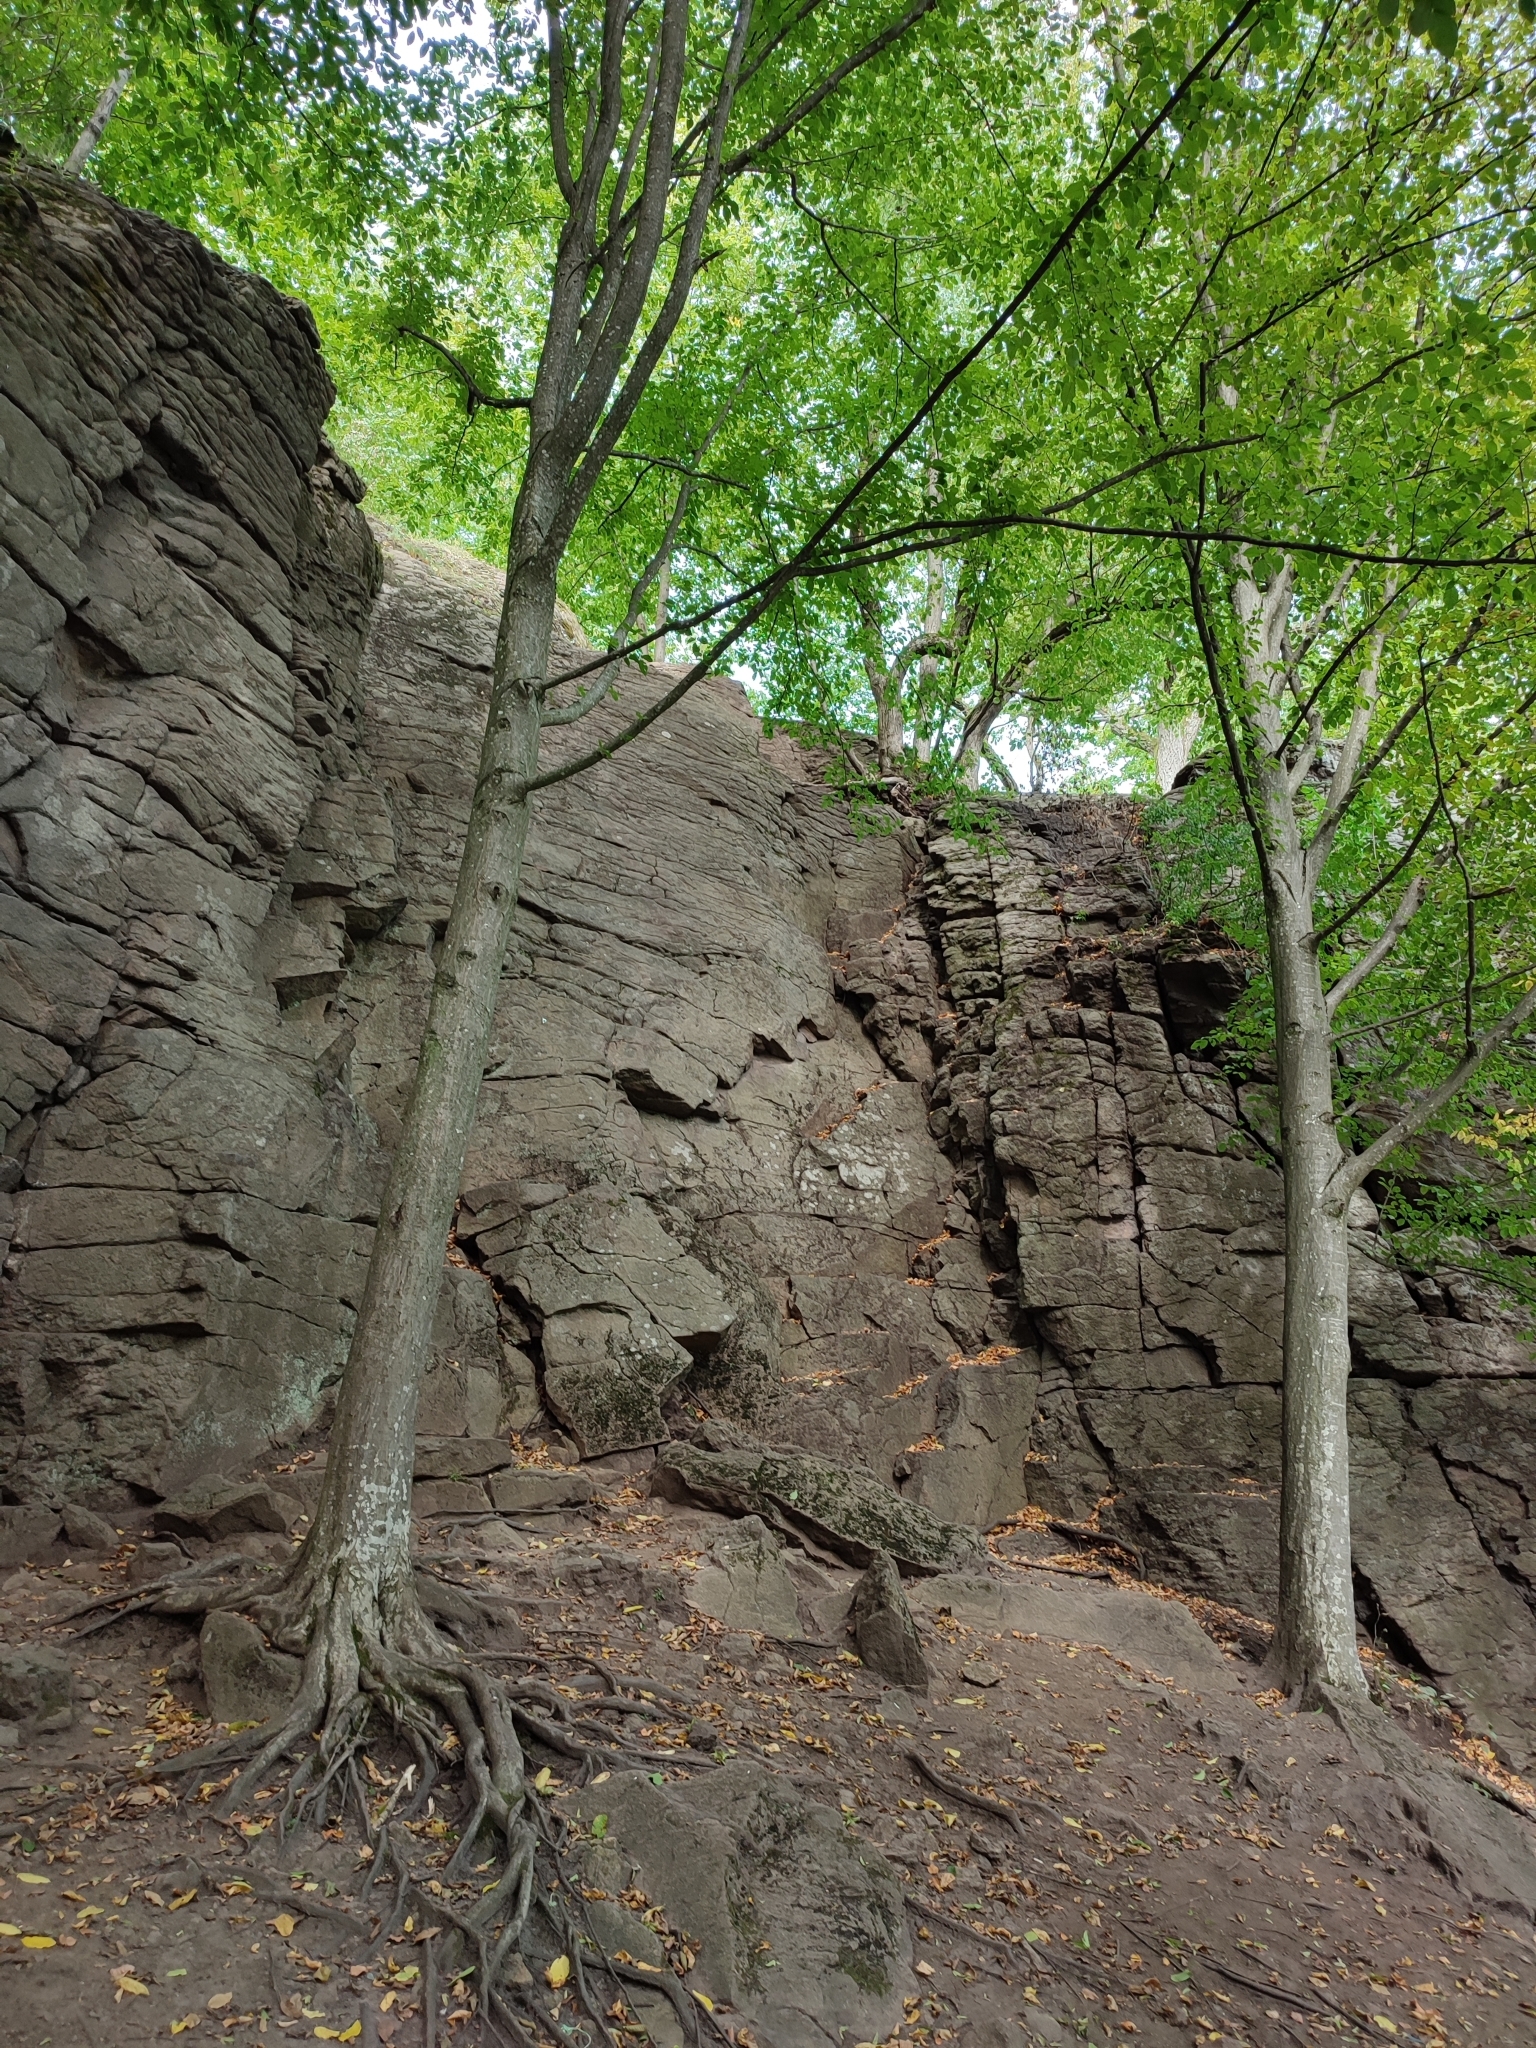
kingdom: Plantae
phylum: Tracheophyta
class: Magnoliopsida
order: Fagales
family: Betulaceae
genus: Carpinus
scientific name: Carpinus betulus
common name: Hornbeam
